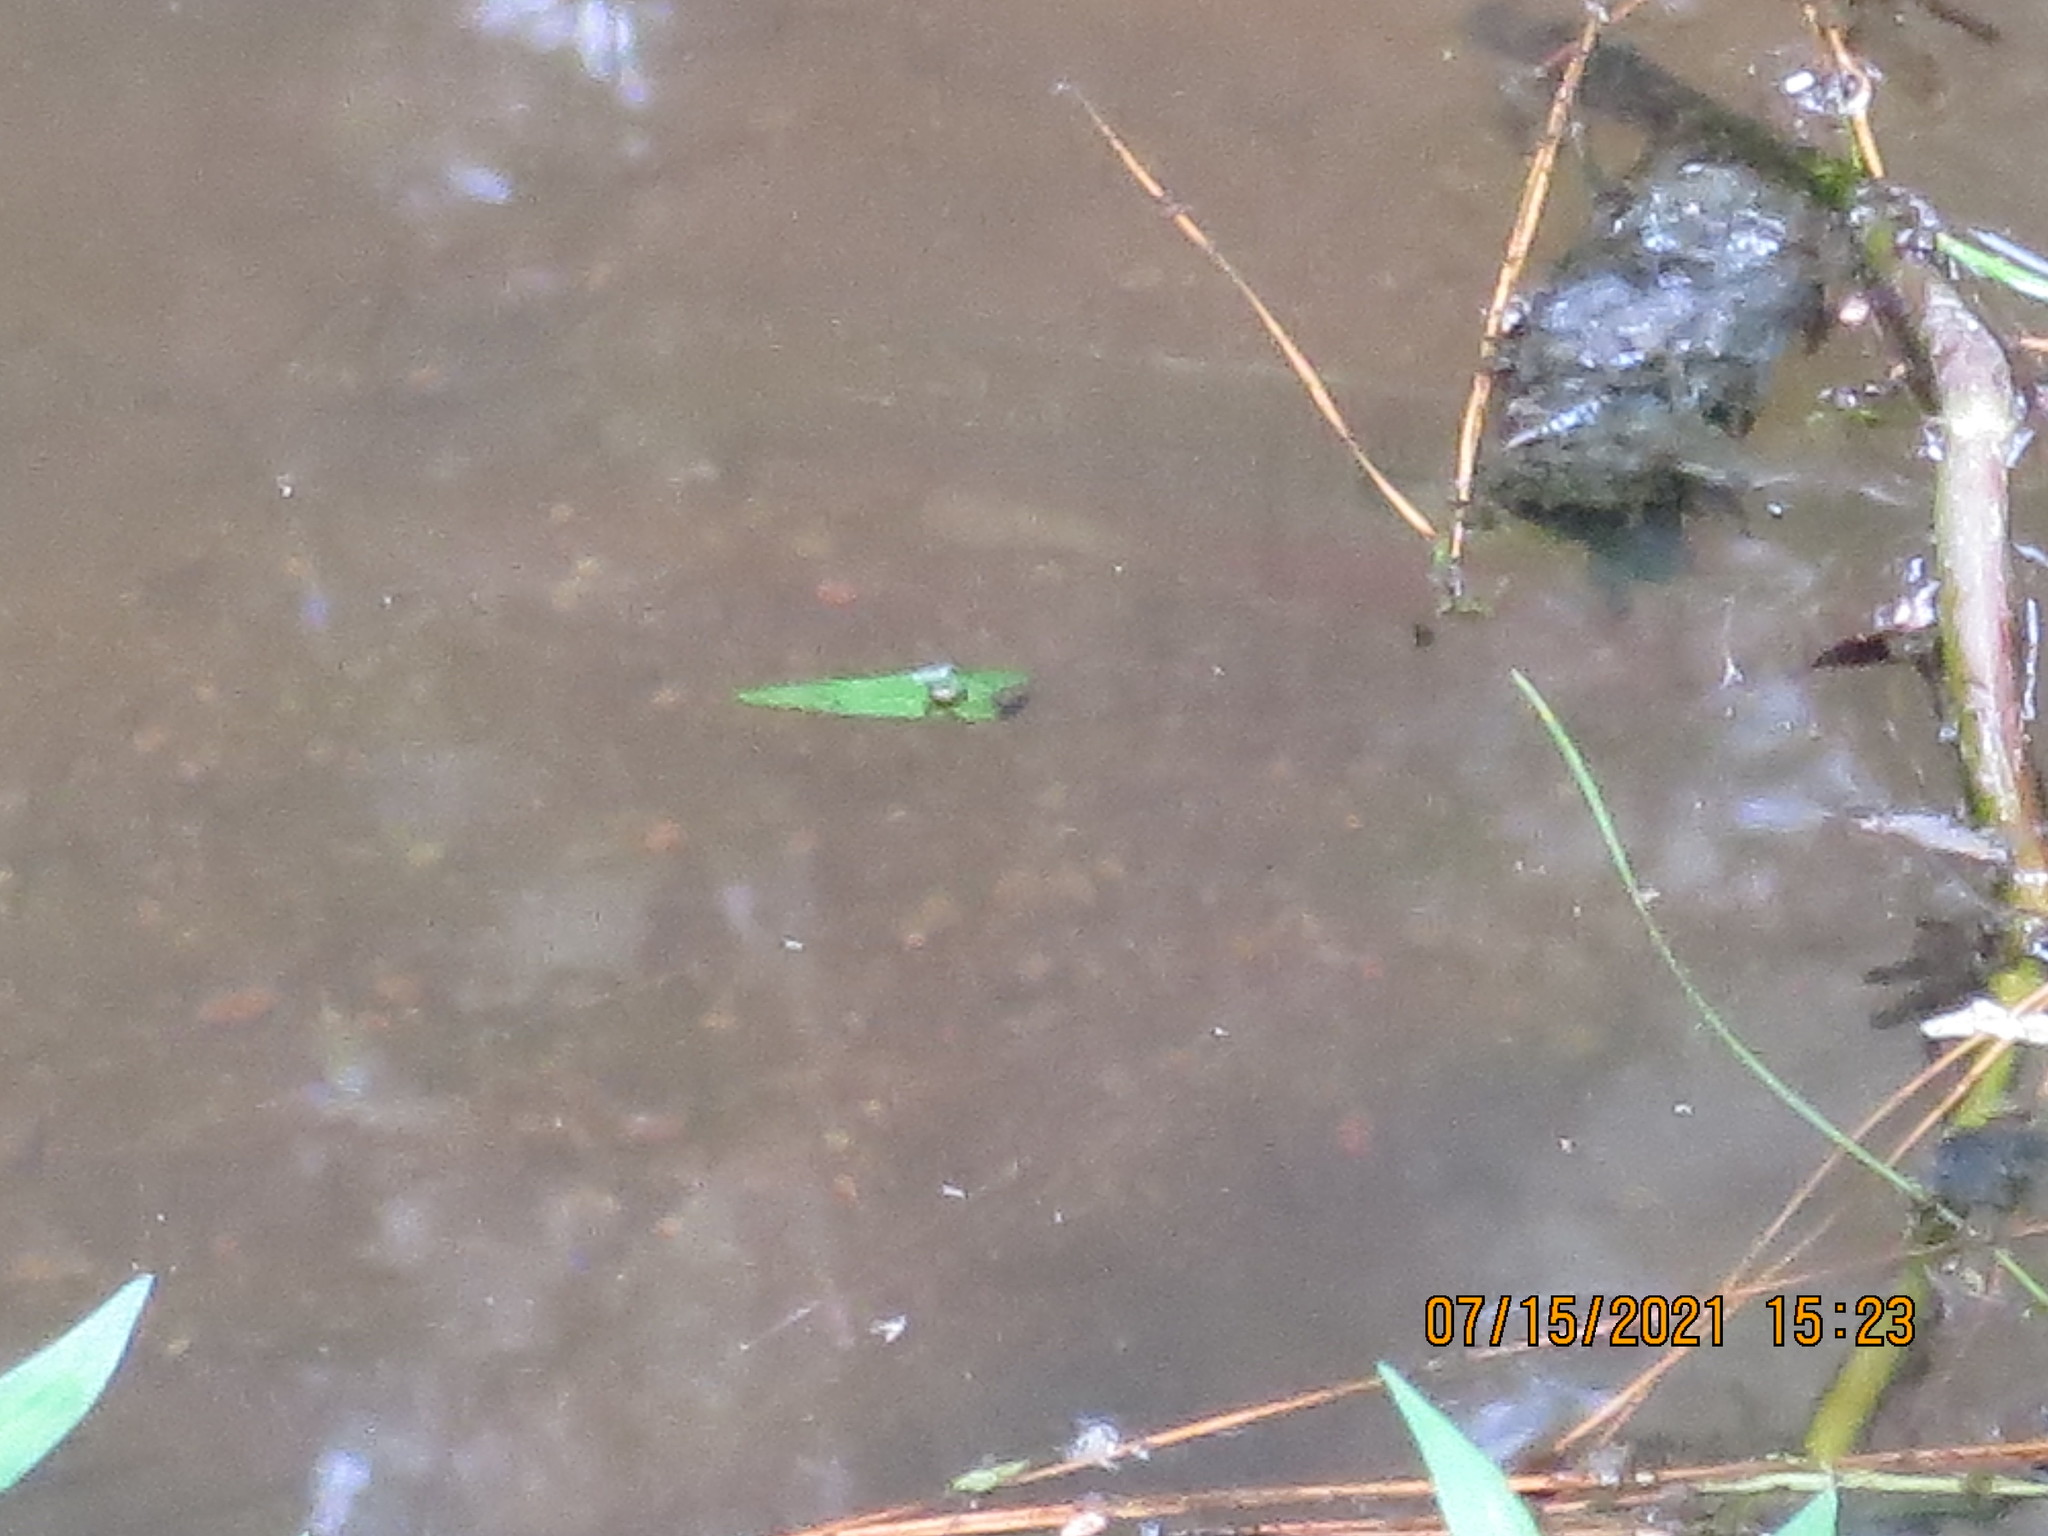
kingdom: Animalia
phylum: Chordata
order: Perciformes
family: Centrarchidae
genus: Lepomis
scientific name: Lepomis auritus
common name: Redbreast sunfish
